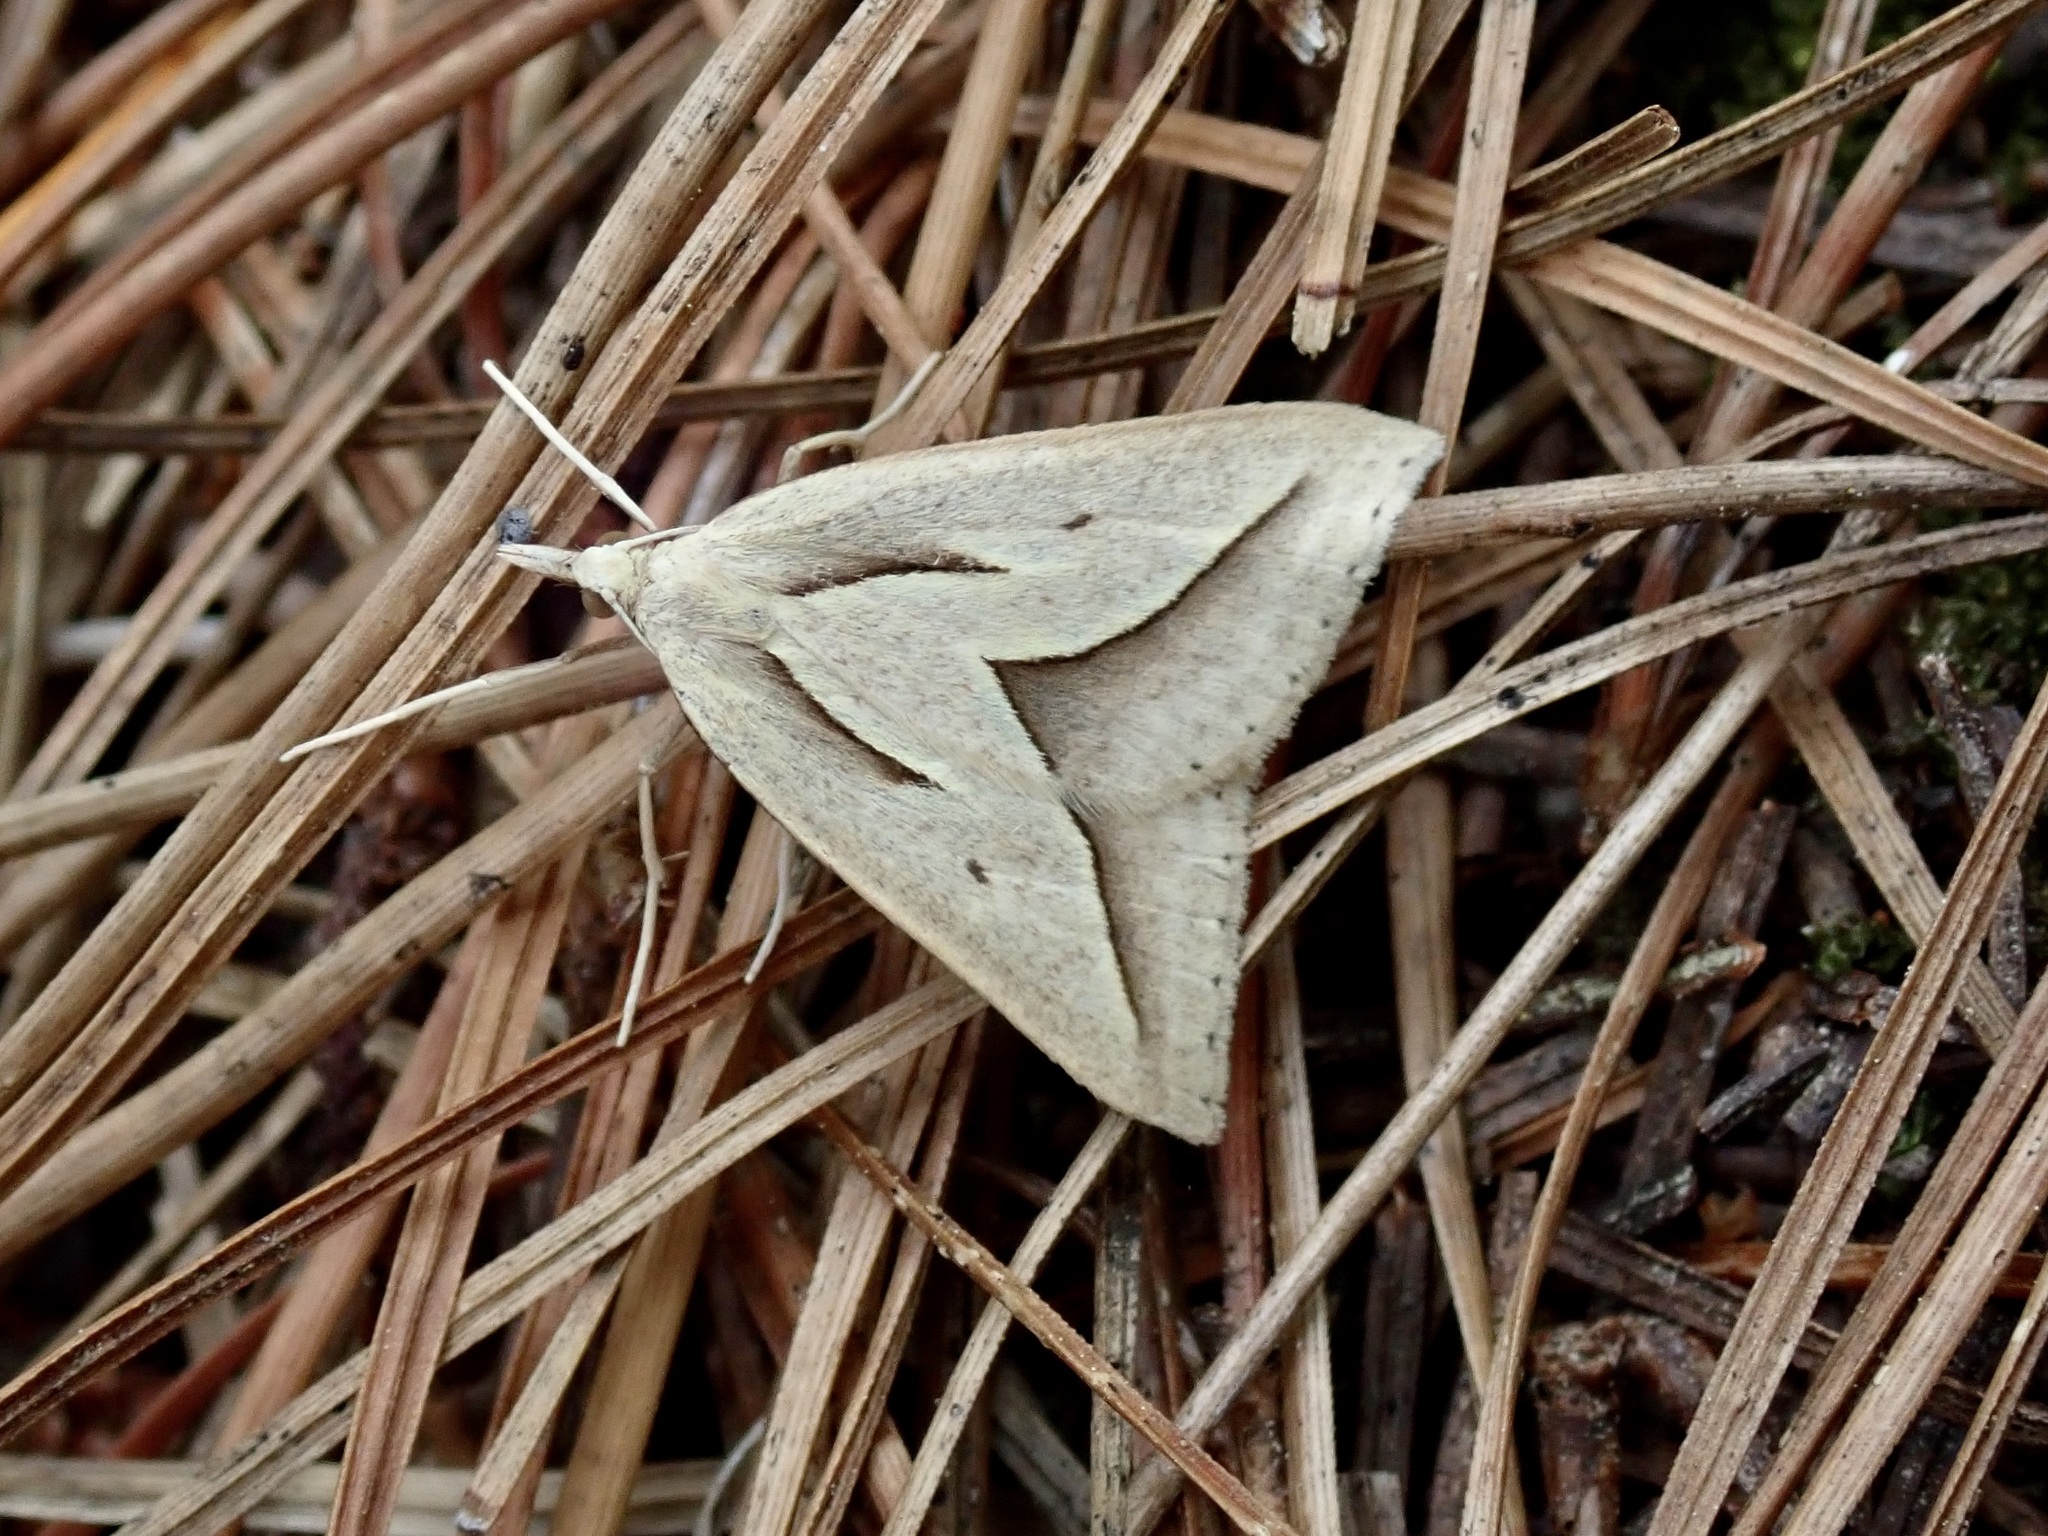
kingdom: Animalia
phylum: Arthropoda
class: Insecta
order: Lepidoptera
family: Geometridae
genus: Samana
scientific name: Samana acutata
